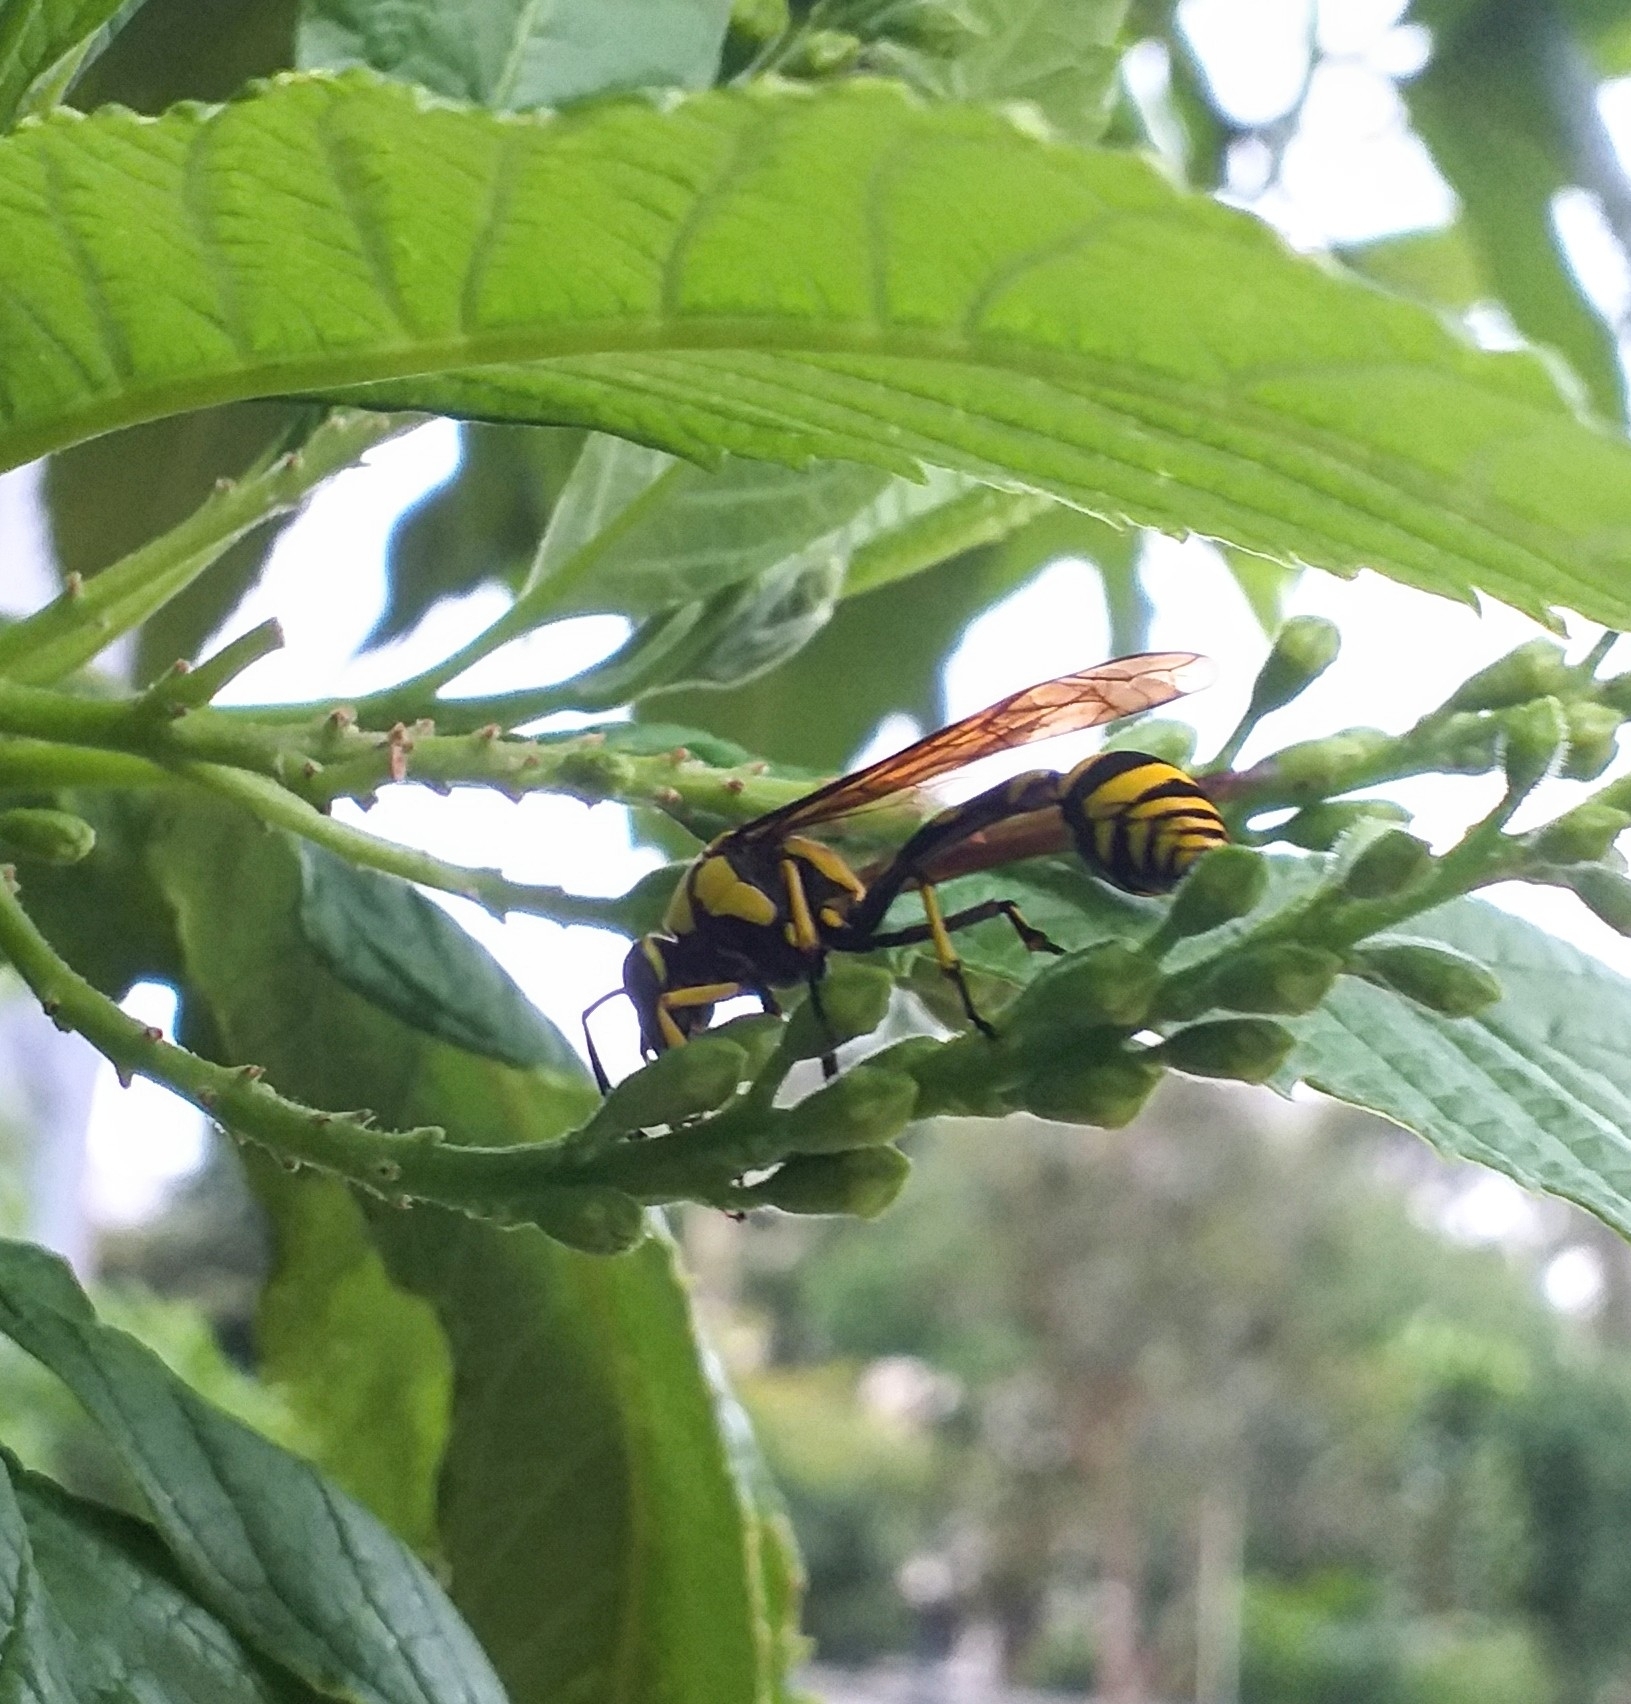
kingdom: Animalia
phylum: Arthropoda
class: Insecta
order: Hymenoptera
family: Eumenidae
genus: Phimenes
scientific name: Phimenes flavopictus
